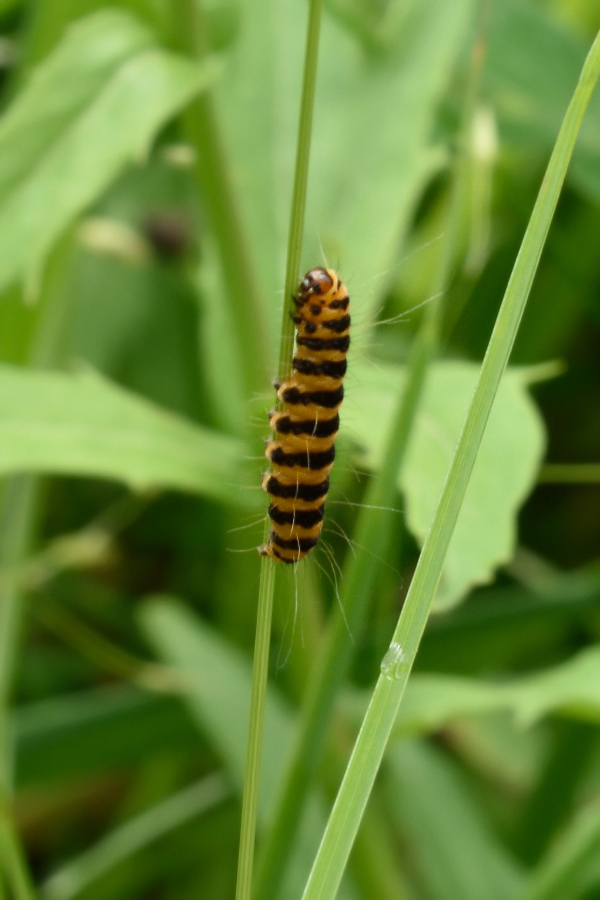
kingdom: Animalia
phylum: Arthropoda
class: Insecta
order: Lepidoptera
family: Erebidae
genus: Tyria
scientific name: Tyria jacobaeae
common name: Cinnabar
